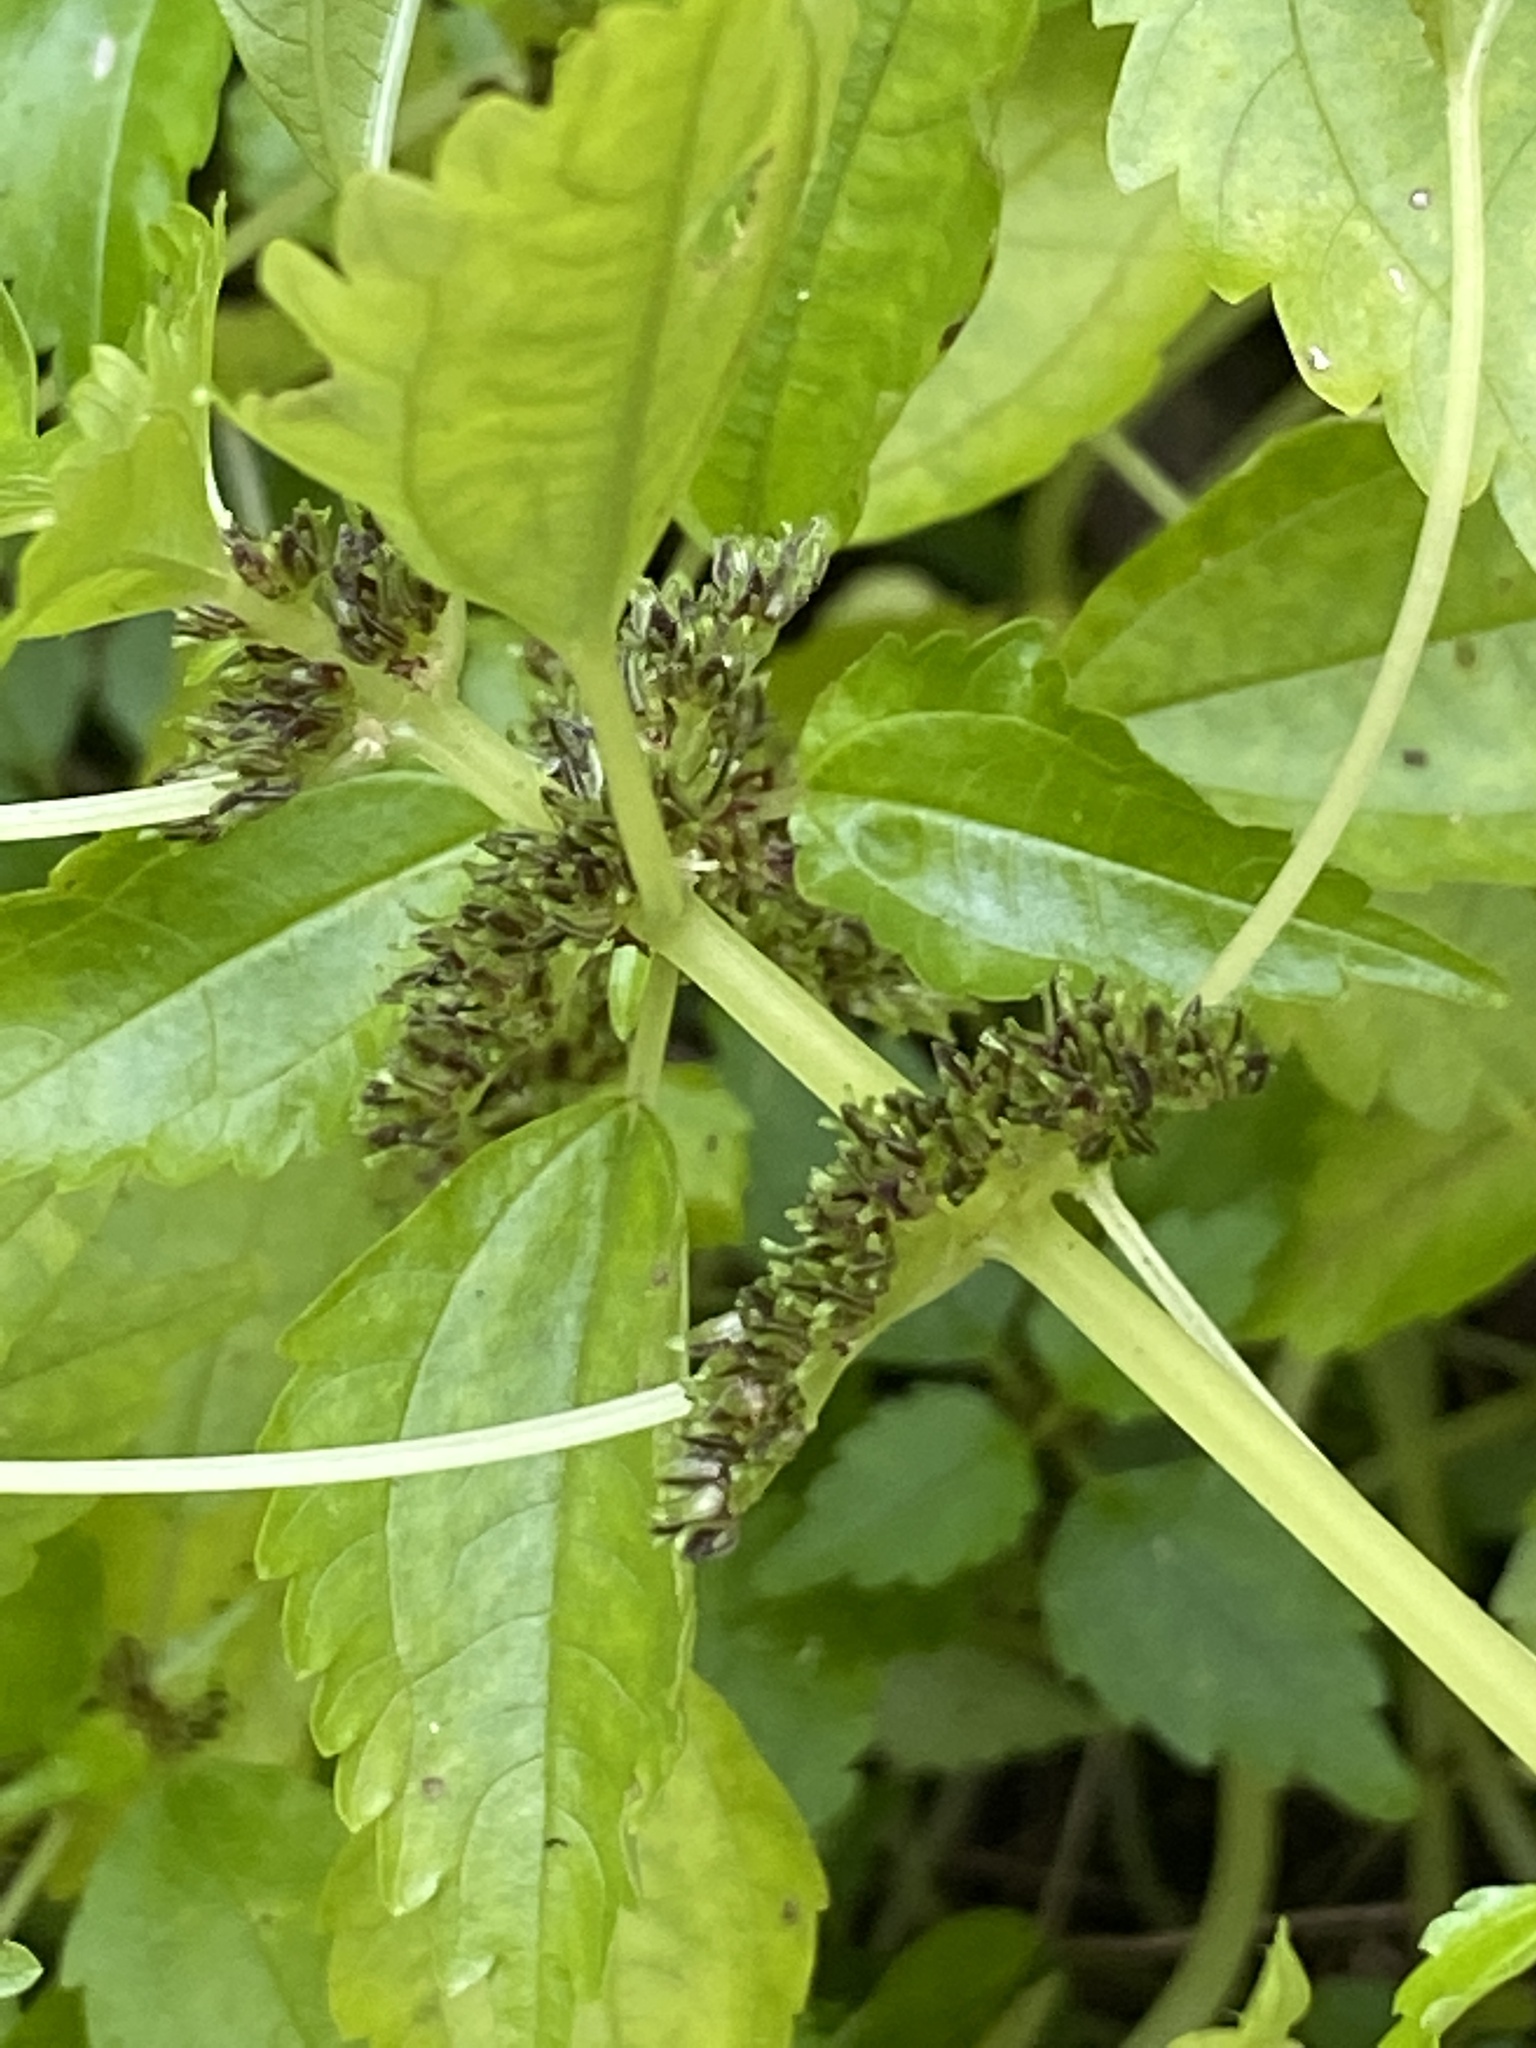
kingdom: Plantae
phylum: Tracheophyta
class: Magnoliopsida
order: Rosales
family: Urticaceae
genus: Pilea
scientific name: Pilea fontana
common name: Clearweed
